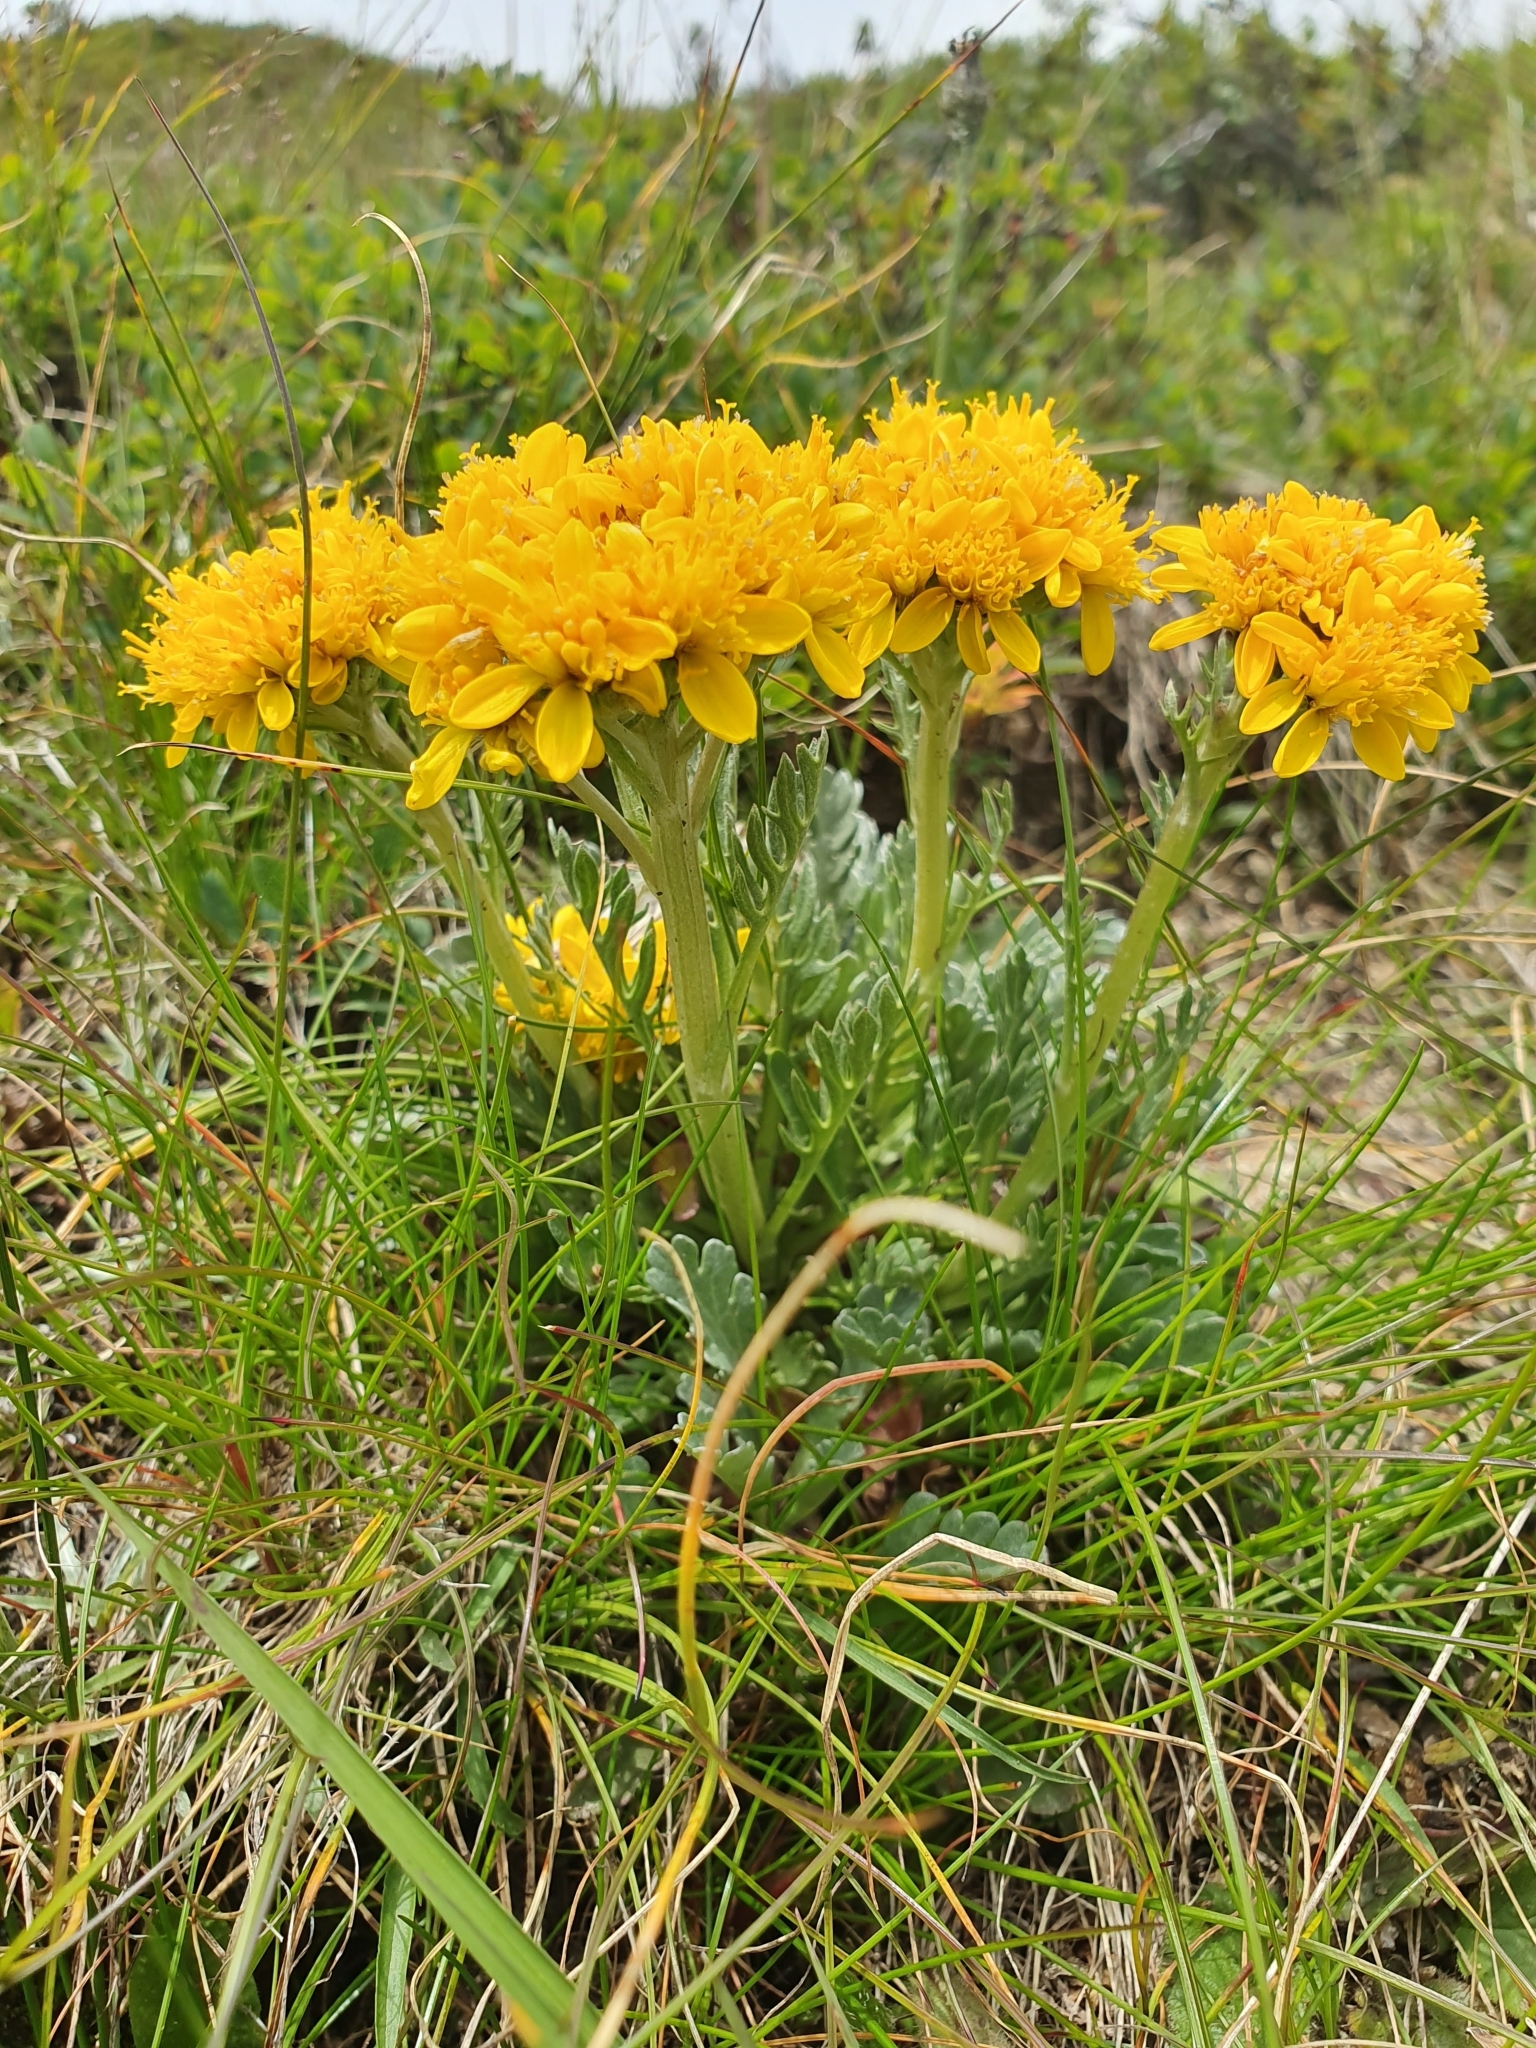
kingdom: Plantae
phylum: Tracheophyta
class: Magnoliopsida
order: Asterales
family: Asteraceae
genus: Jacobaea
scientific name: Jacobaea carniolica
